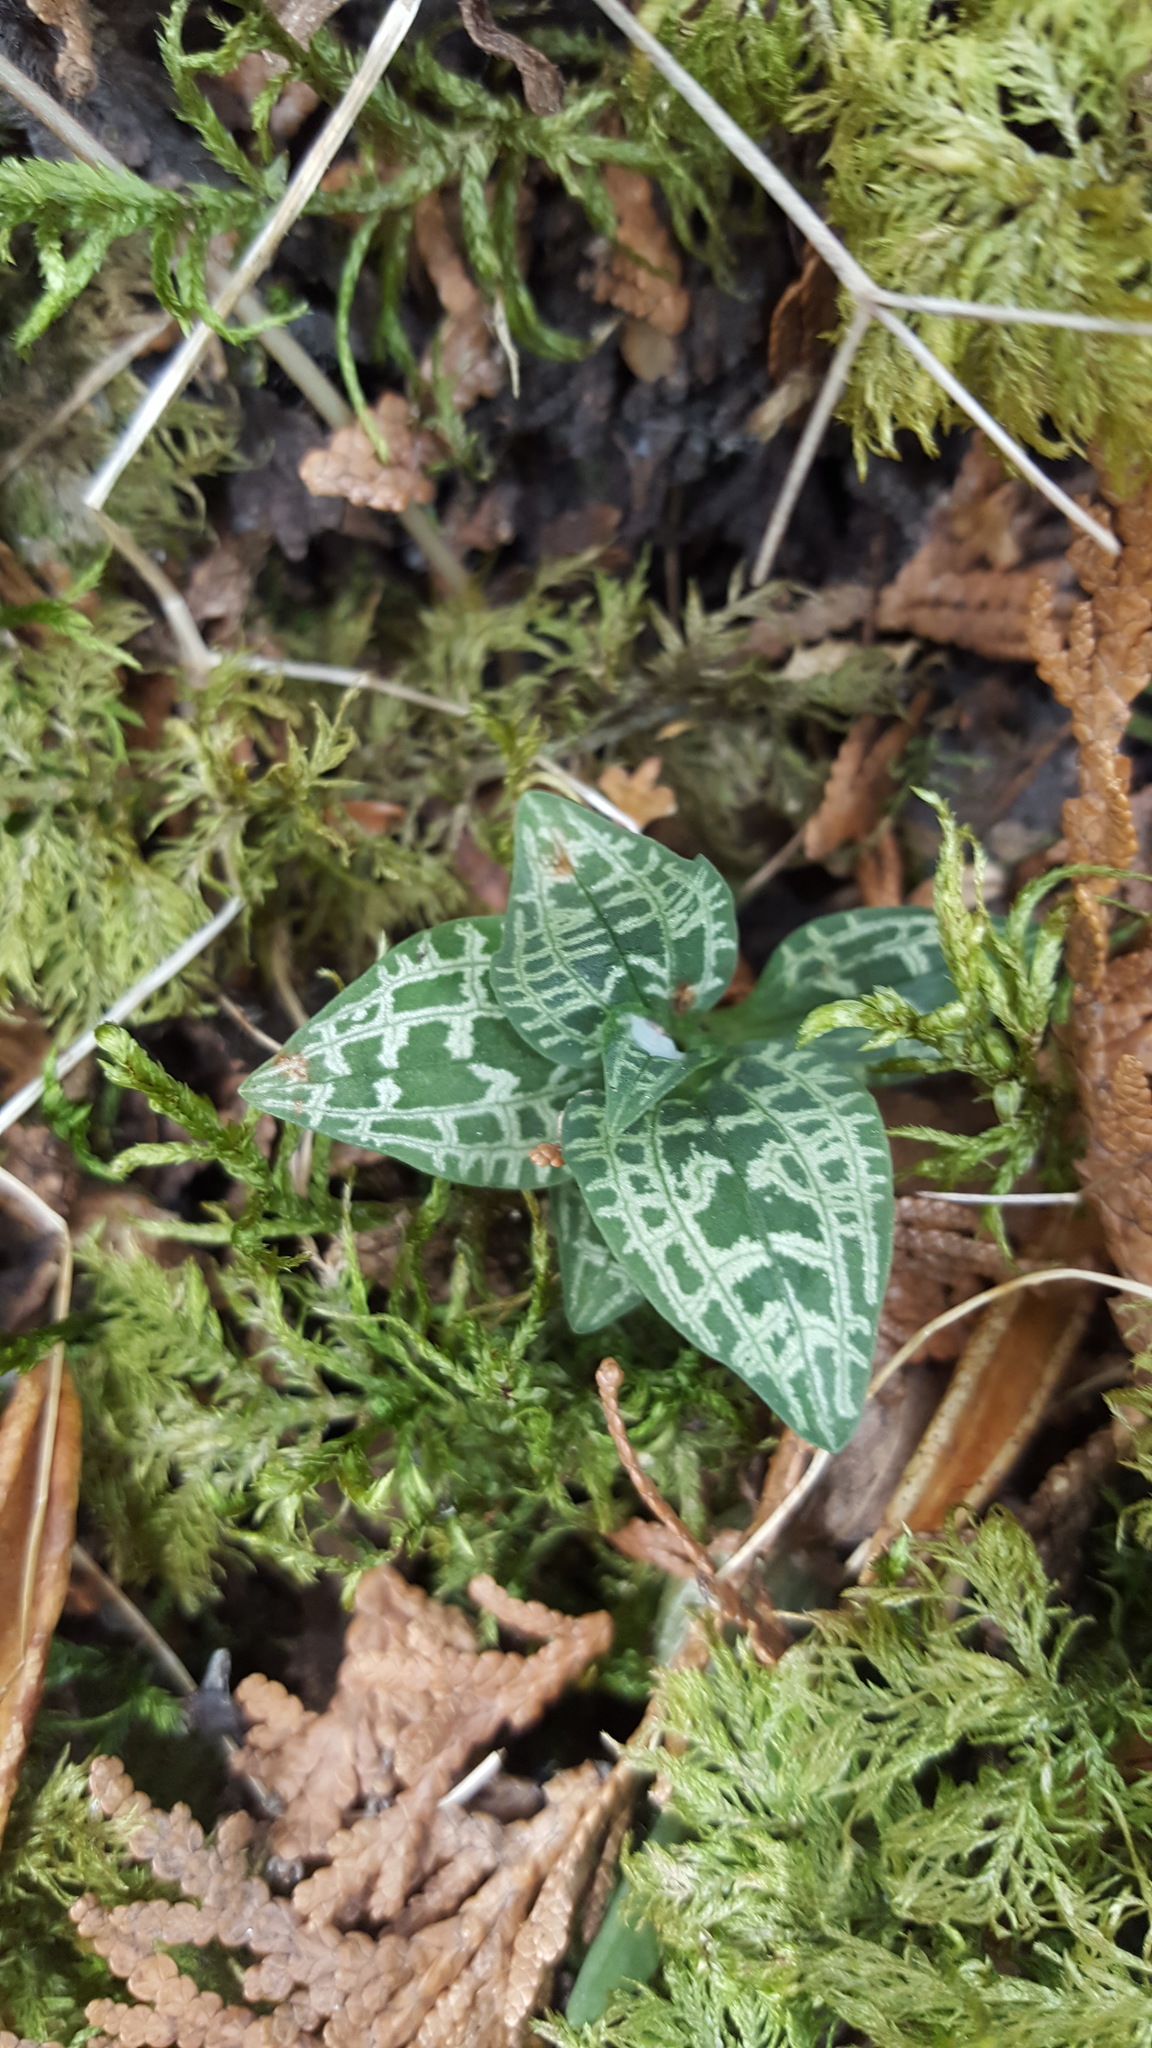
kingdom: Plantae
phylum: Tracheophyta
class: Liliopsida
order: Asparagales
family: Orchidaceae
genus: Goodyera
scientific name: Goodyera repens
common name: Creeping lady's-tresses
